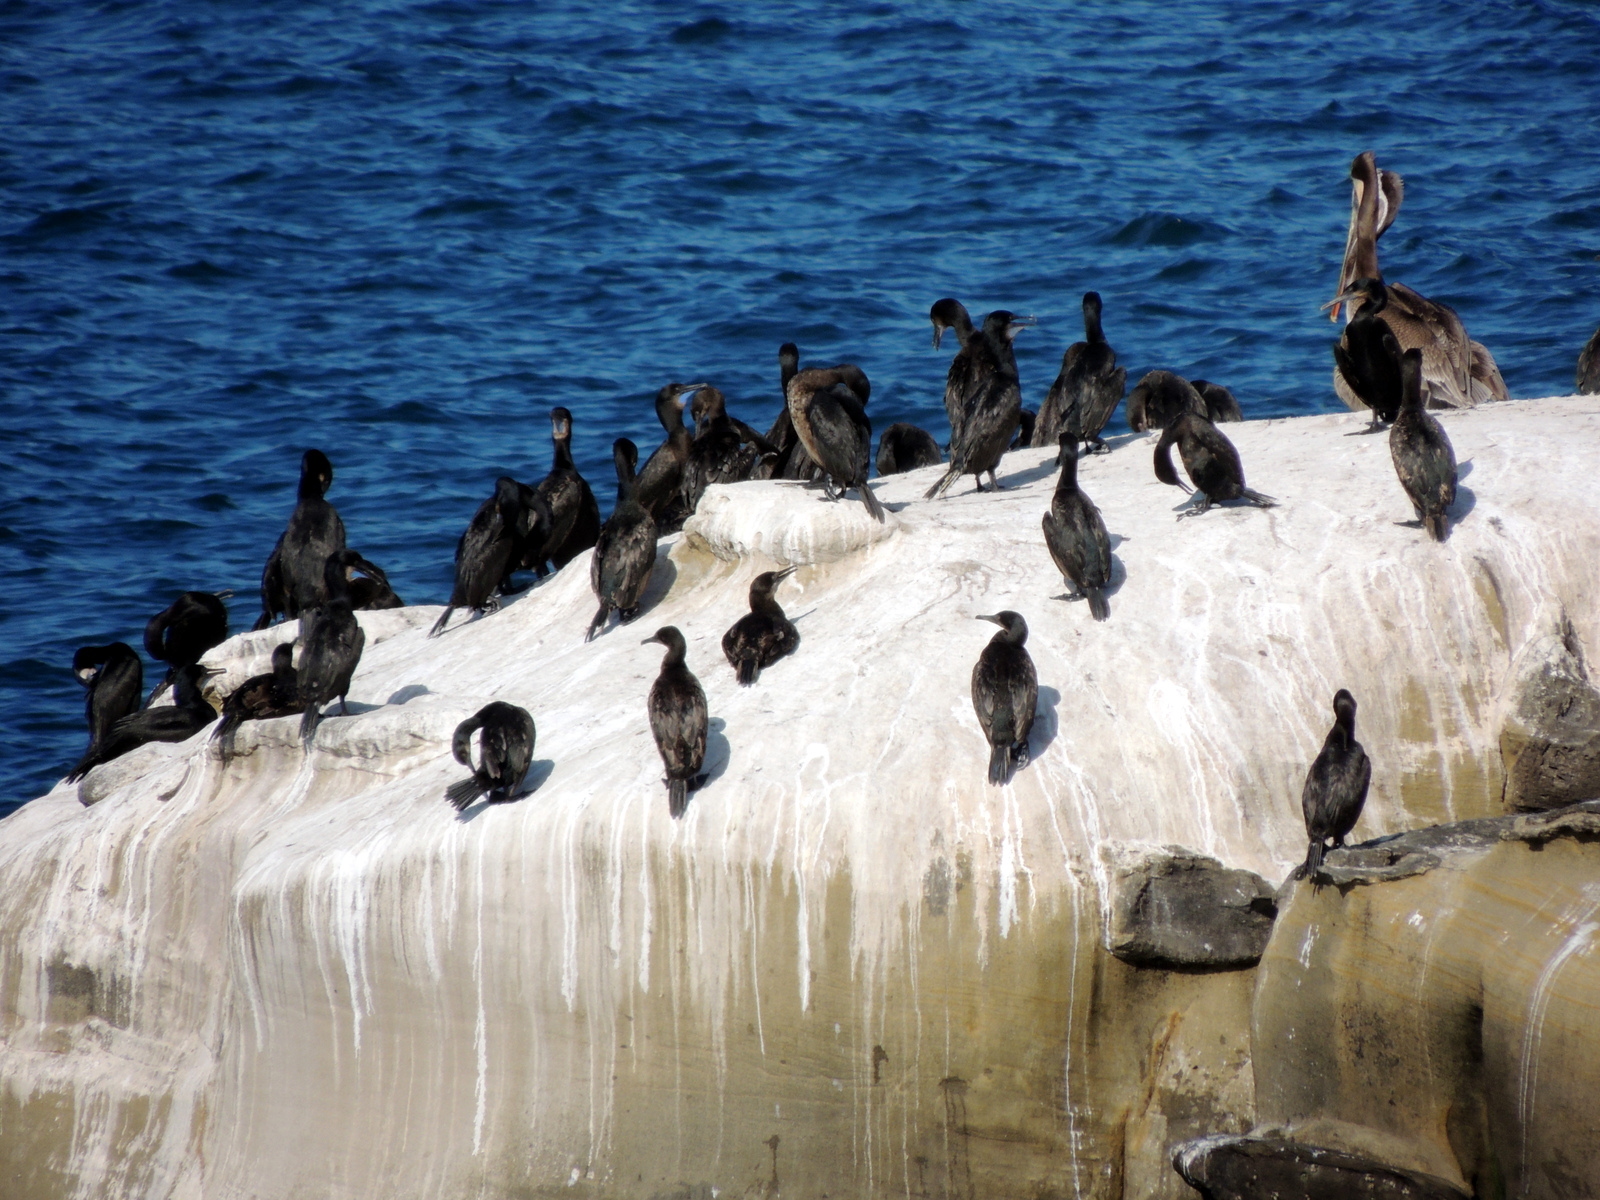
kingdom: Animalia
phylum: Chordata
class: Aves
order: Suliformes
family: Phalacrocoracidae
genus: Urile
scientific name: Urile penicillatus
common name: Brandt's cormorant
